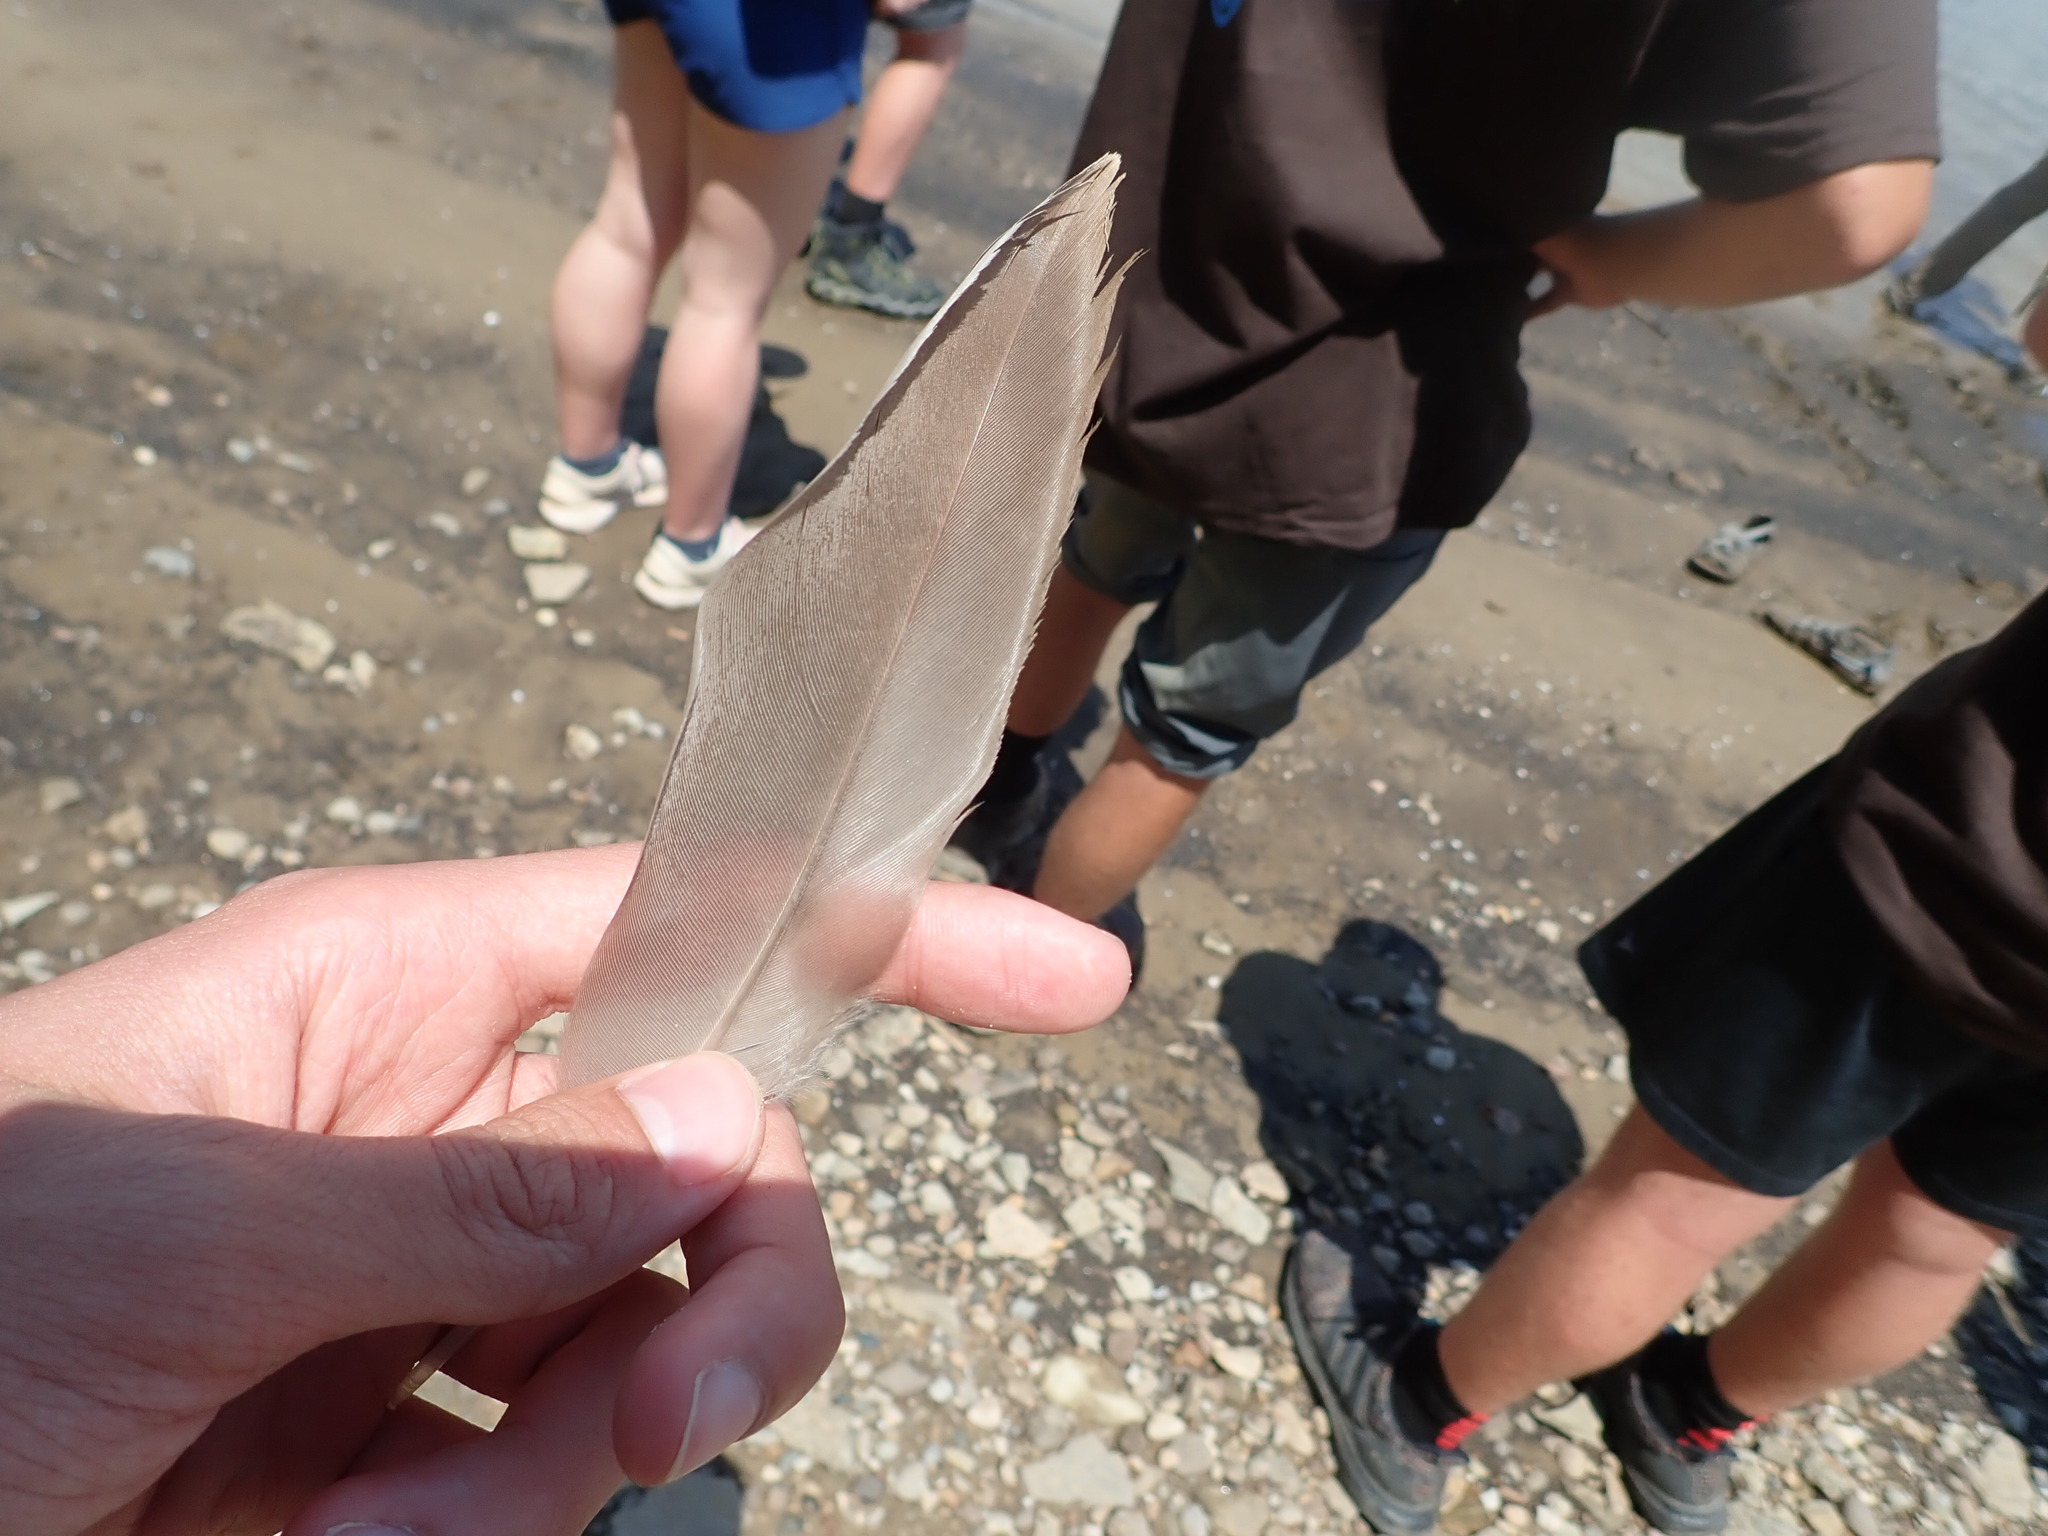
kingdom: Animalia
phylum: Chordata
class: Aves
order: Anseriformes
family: Anatidae
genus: Branta
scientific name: Branta canadensis
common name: Canada goose
